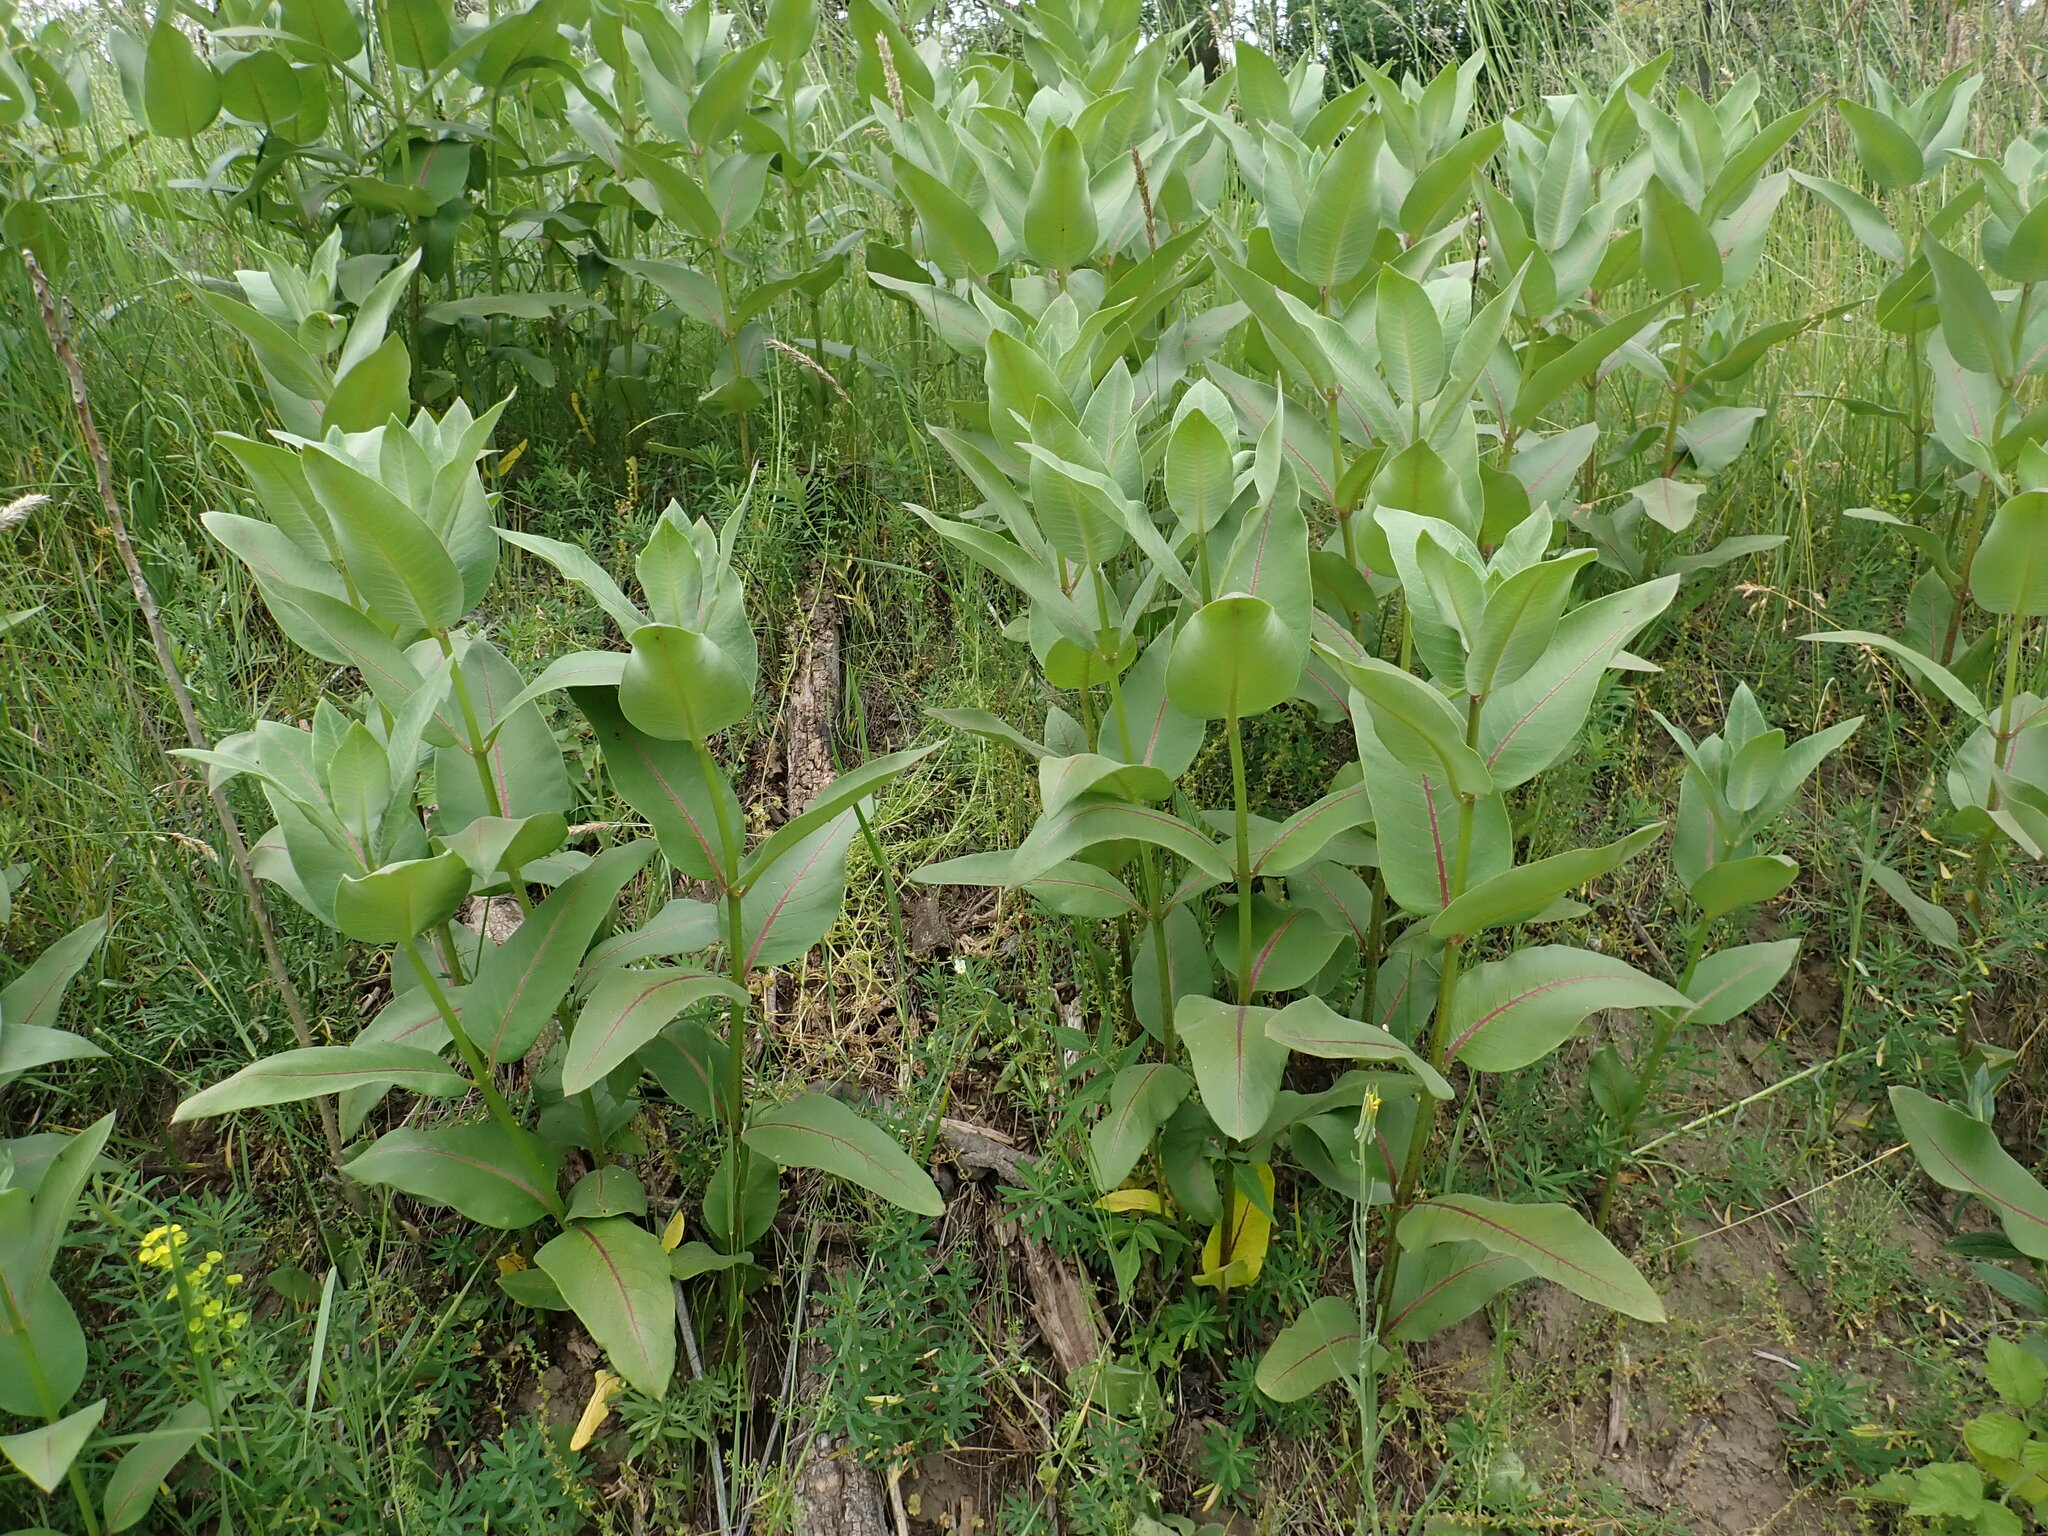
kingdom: Plantae
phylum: Tracheophyta
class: Magnoliopsida
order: Gentianales
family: Apocynaceae
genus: Asclepias
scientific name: Asclepias syriaca
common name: Common milkweed
